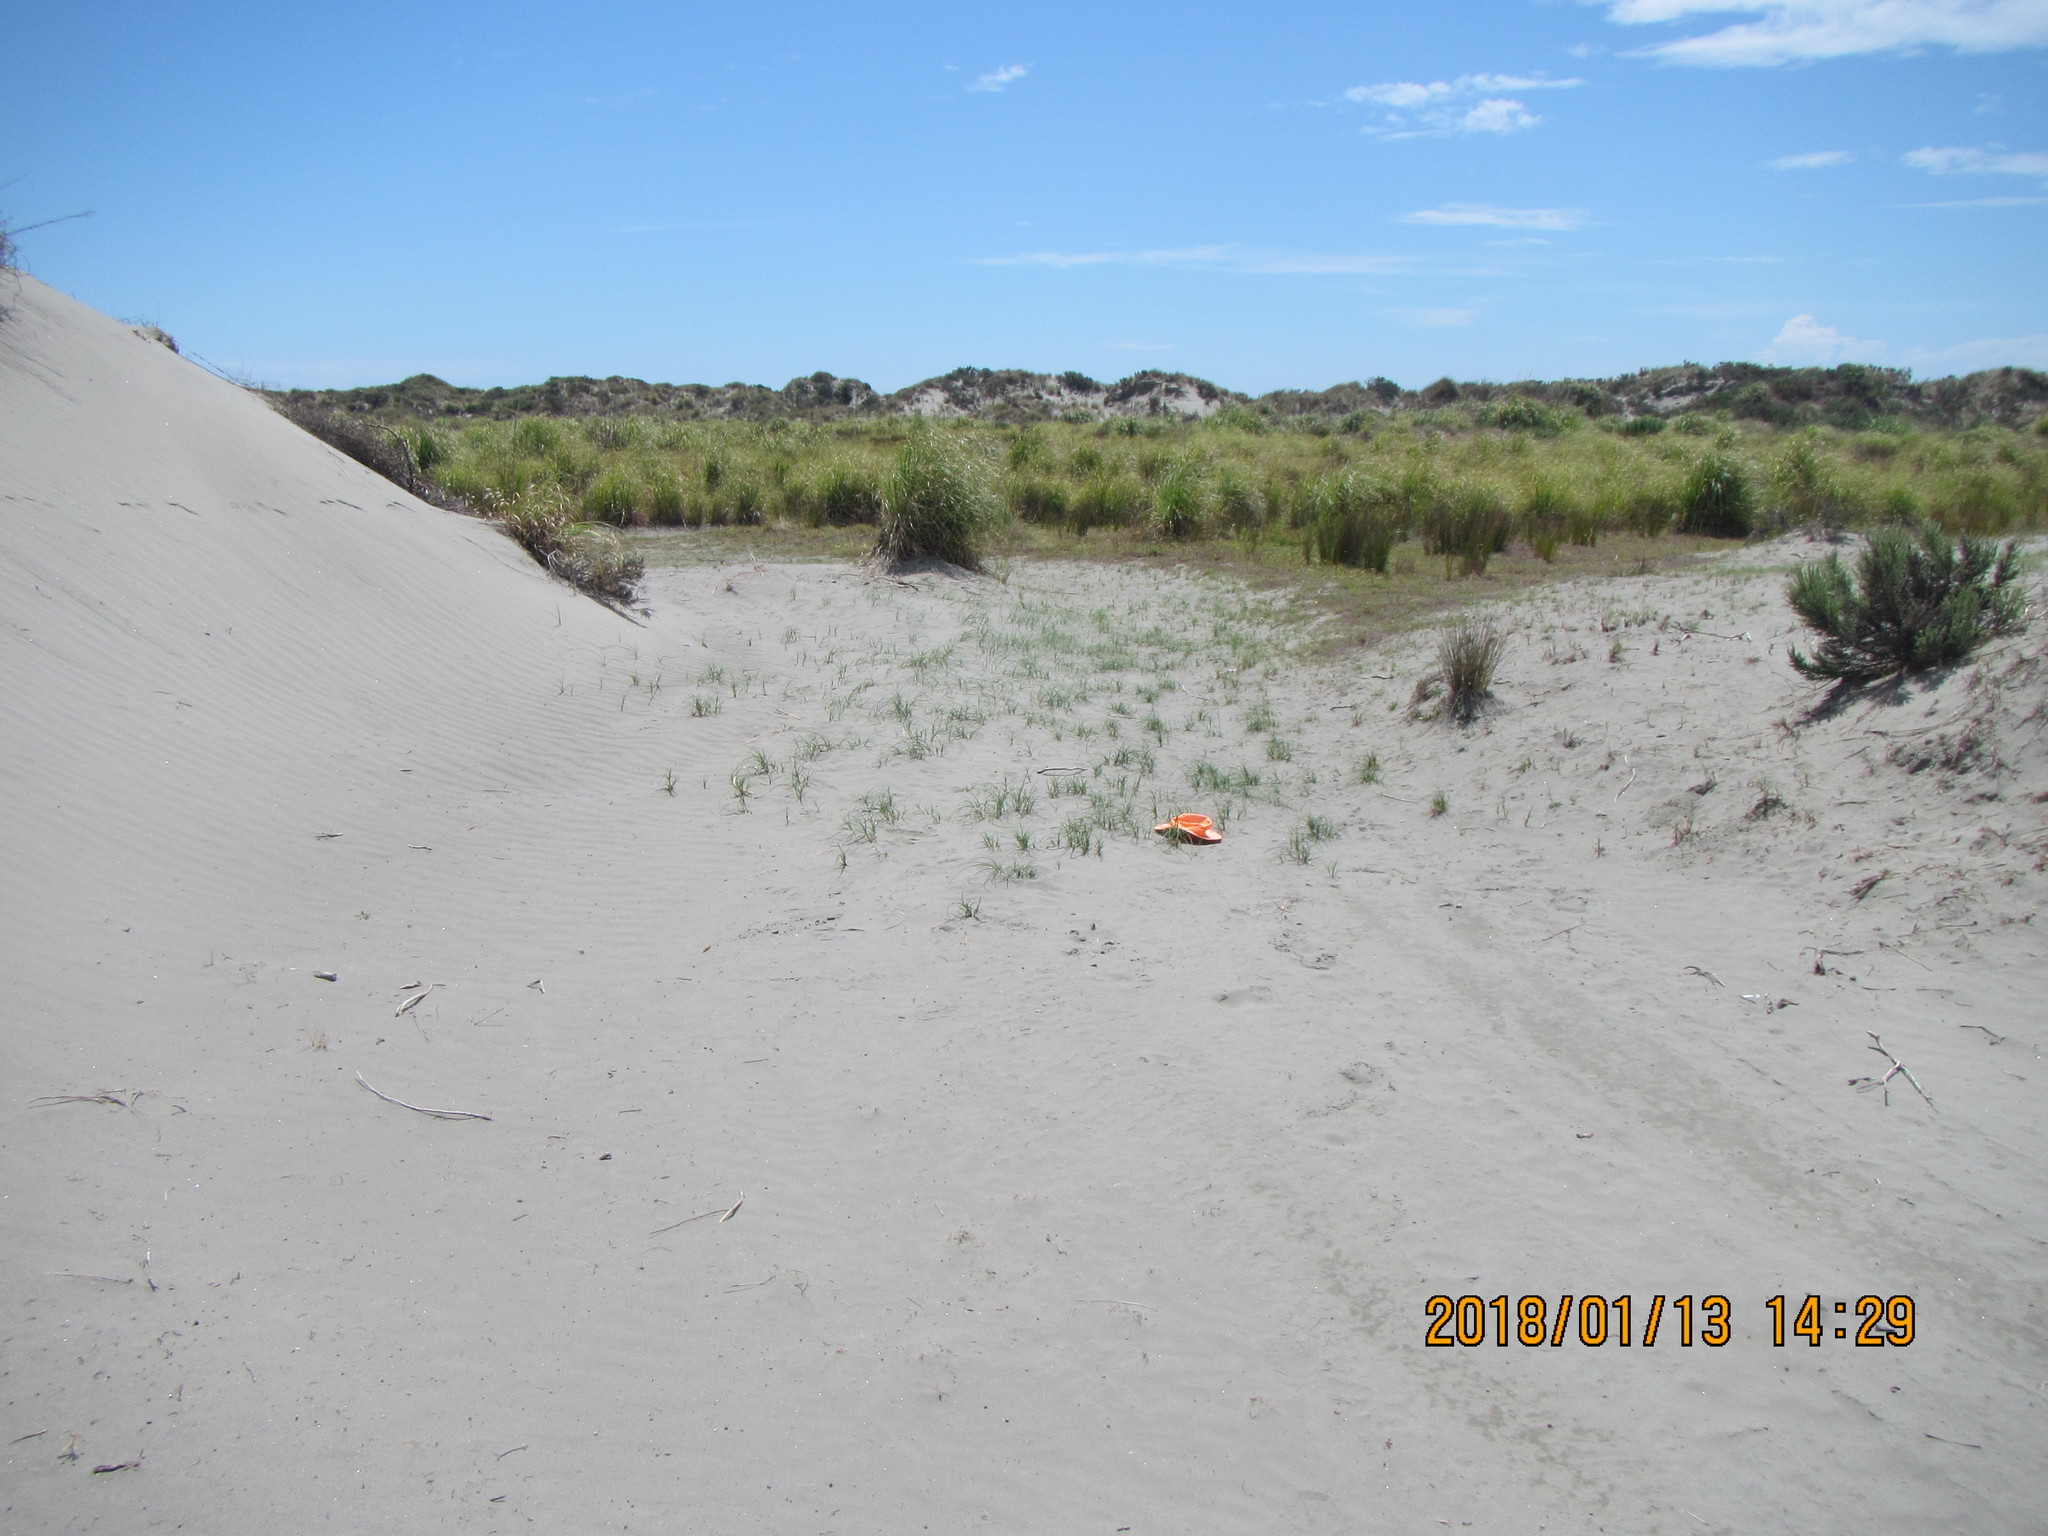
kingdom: Plantae
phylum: Tracheophyta
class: Liliopsida
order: Poales
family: Cyperaceae
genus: Carex
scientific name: Carex pumila
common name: Dwarf sedge
